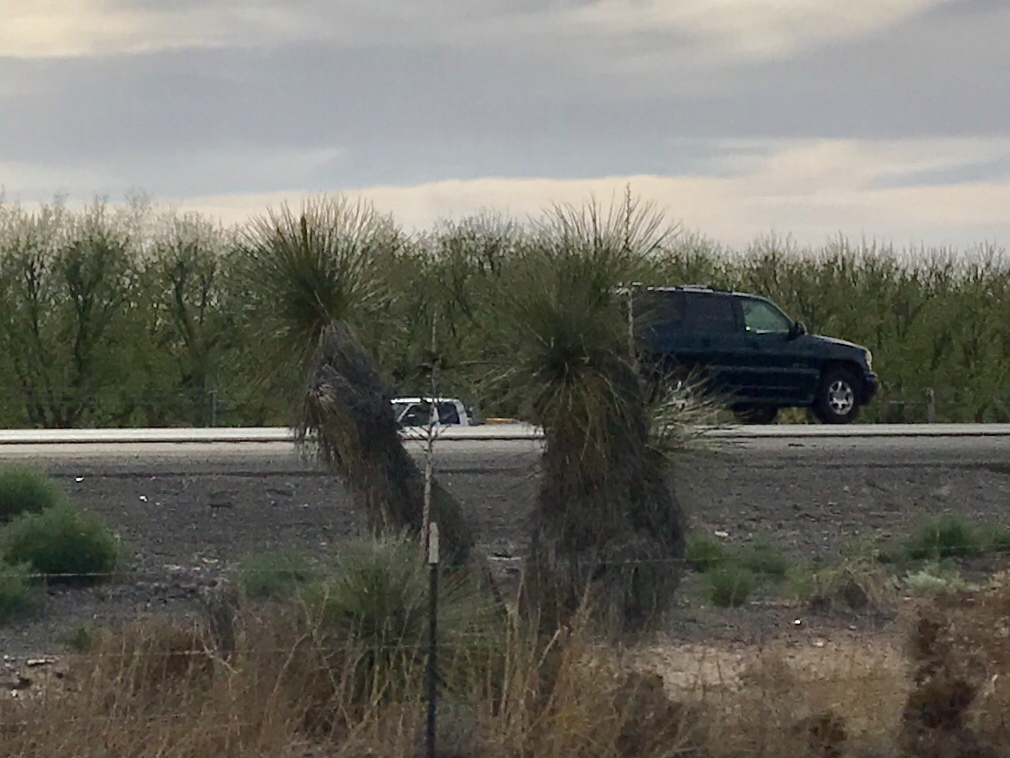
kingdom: Plantae
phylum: Tracheophyta
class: Liliopsida
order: Asparagales
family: Asparagaceae
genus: Yucca
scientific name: Yucca elata
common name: Palmella
